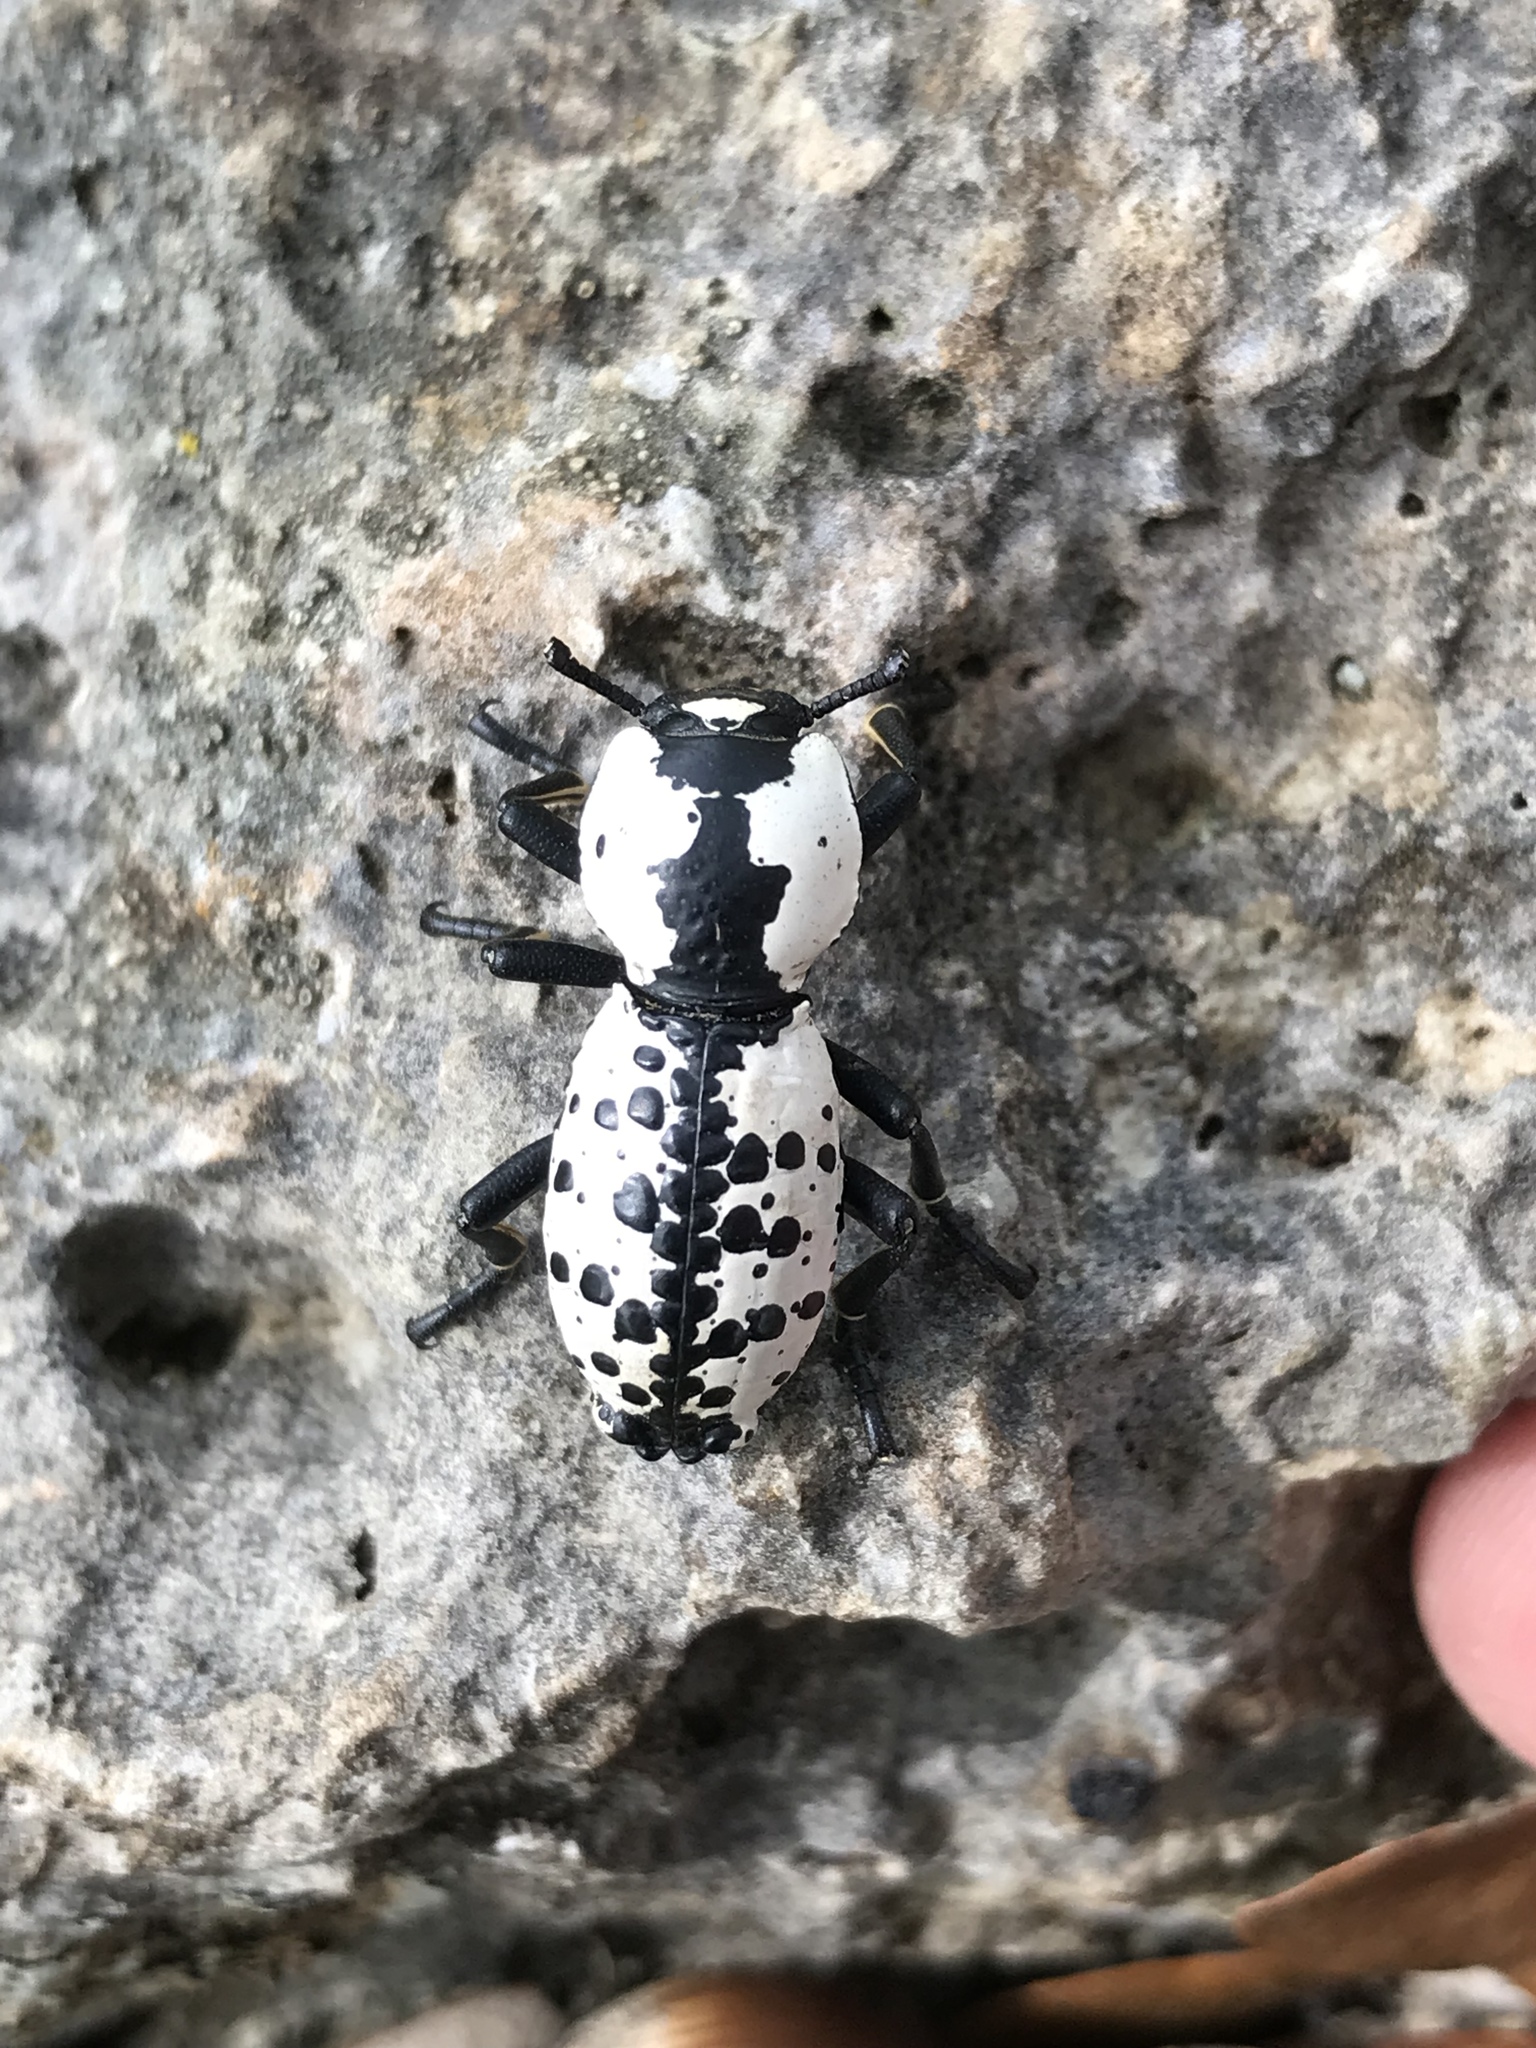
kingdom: Animalia
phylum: Arthropoda
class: Insecta
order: Coleoptera
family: Zopheridae
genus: Zopherus
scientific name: Zopherus nodulosus
